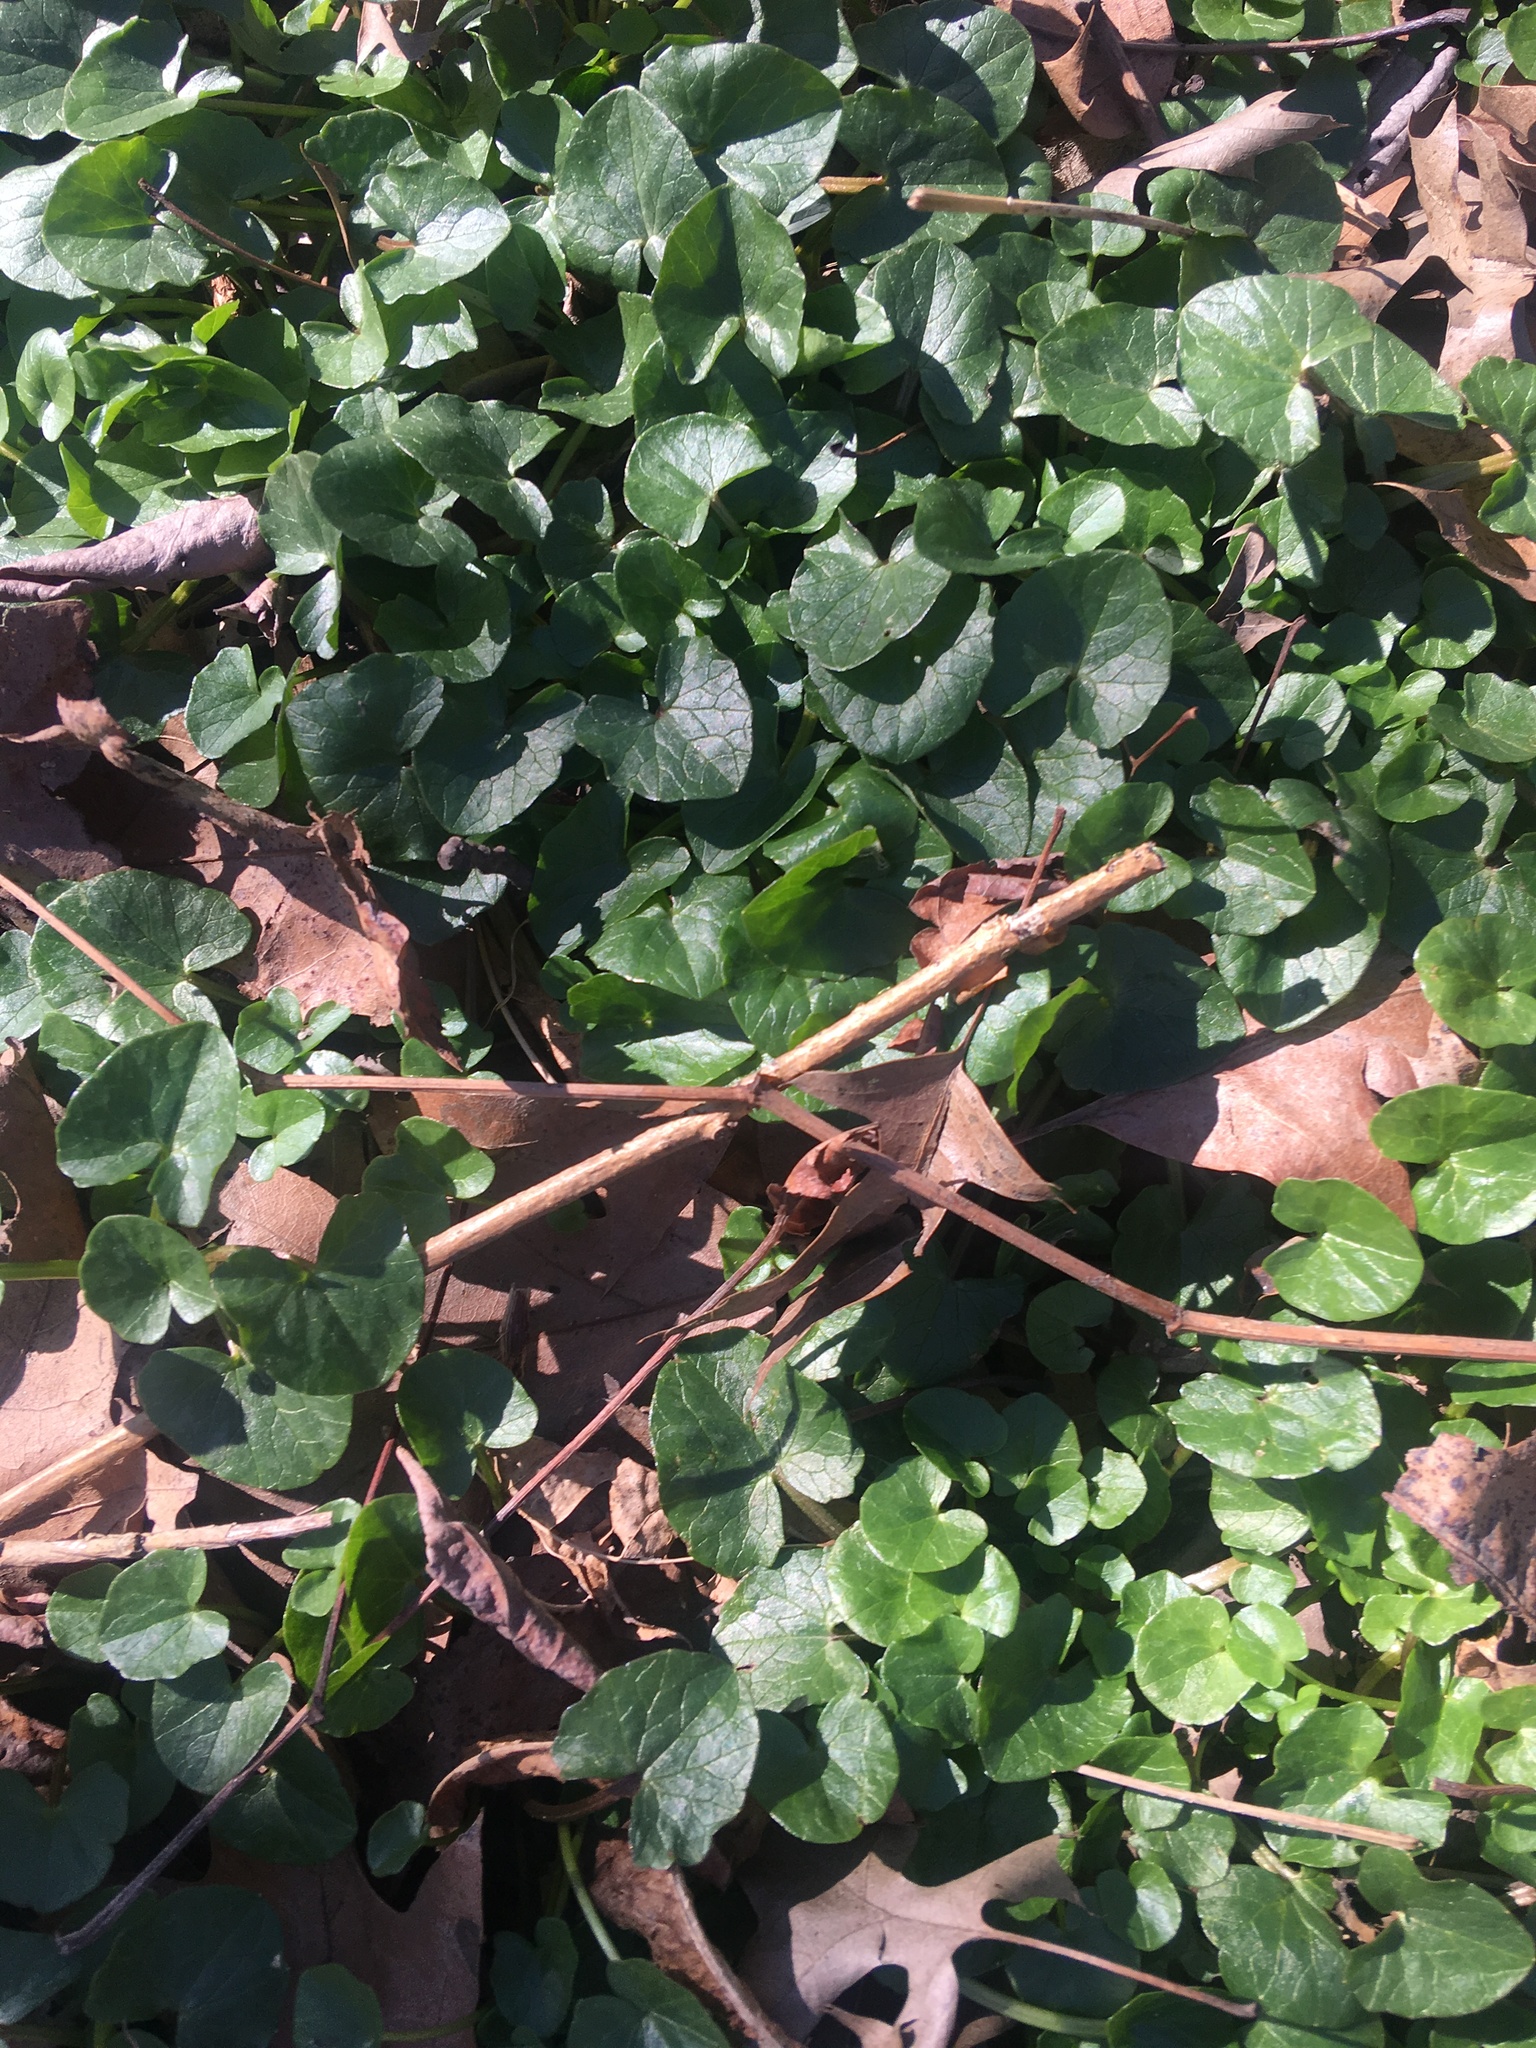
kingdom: Plantae
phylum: Tracheophyta
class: Magnoliopsida
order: Ranunculales
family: Ranunculaceae
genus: Ficaria
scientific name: Ficaria verna
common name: Lesser celandine
